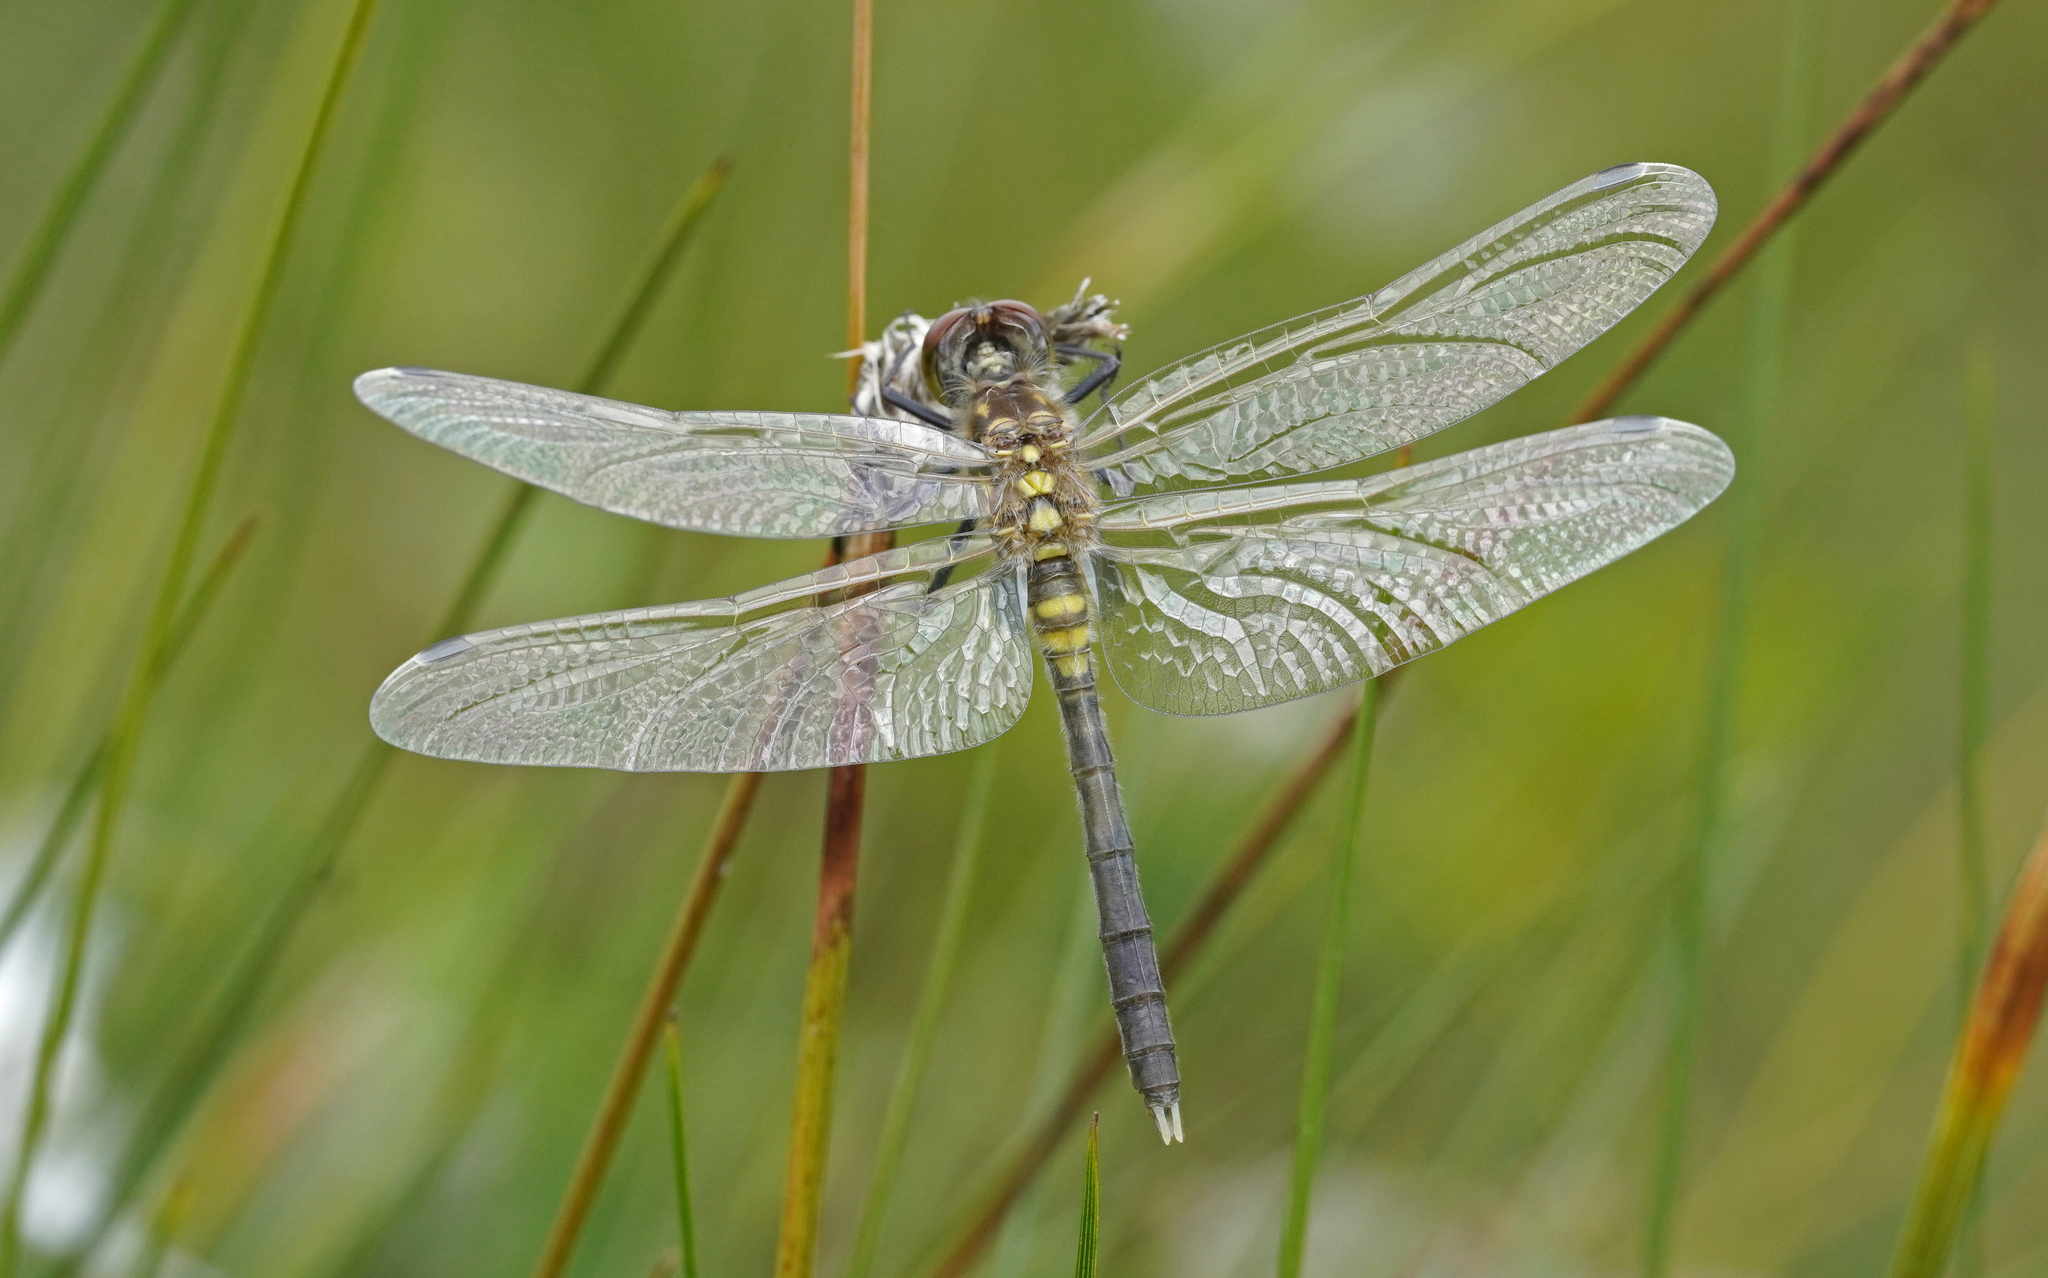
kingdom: Animalia
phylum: Arthropoda
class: Insecta
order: Odonata
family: Libellulidae
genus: Leucorrhinia
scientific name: Leucorrhinia albifrons
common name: Dark whiteface
